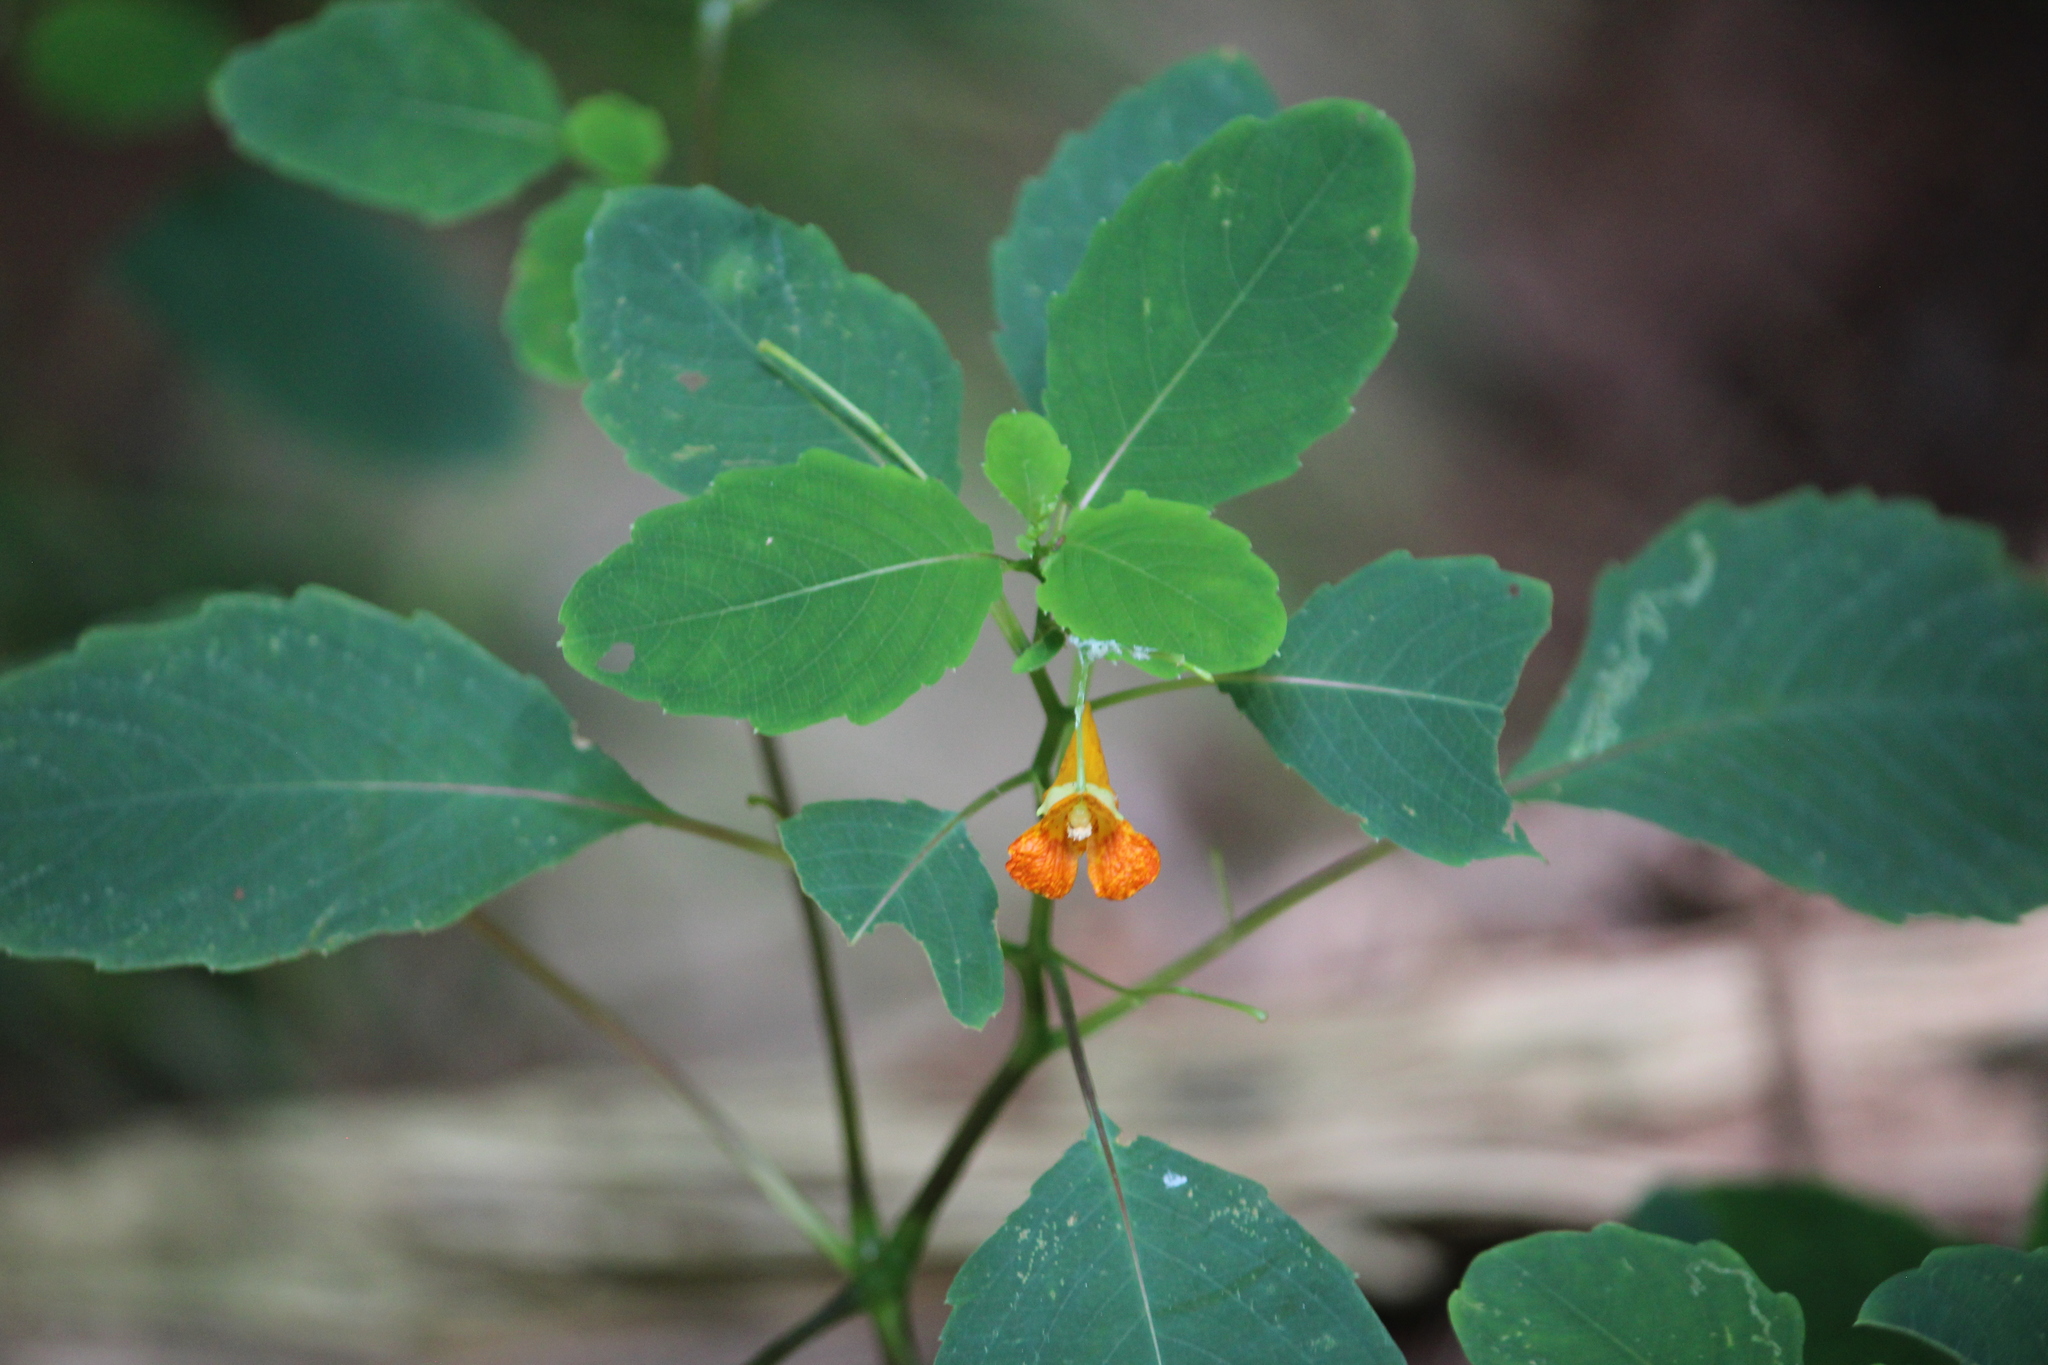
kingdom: Plantae
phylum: Tracheophyta
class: Magnoliopsida
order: Ericales
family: Balsaminaceae
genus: Impatiens
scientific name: Impatiens capensis
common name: Orange balsam
